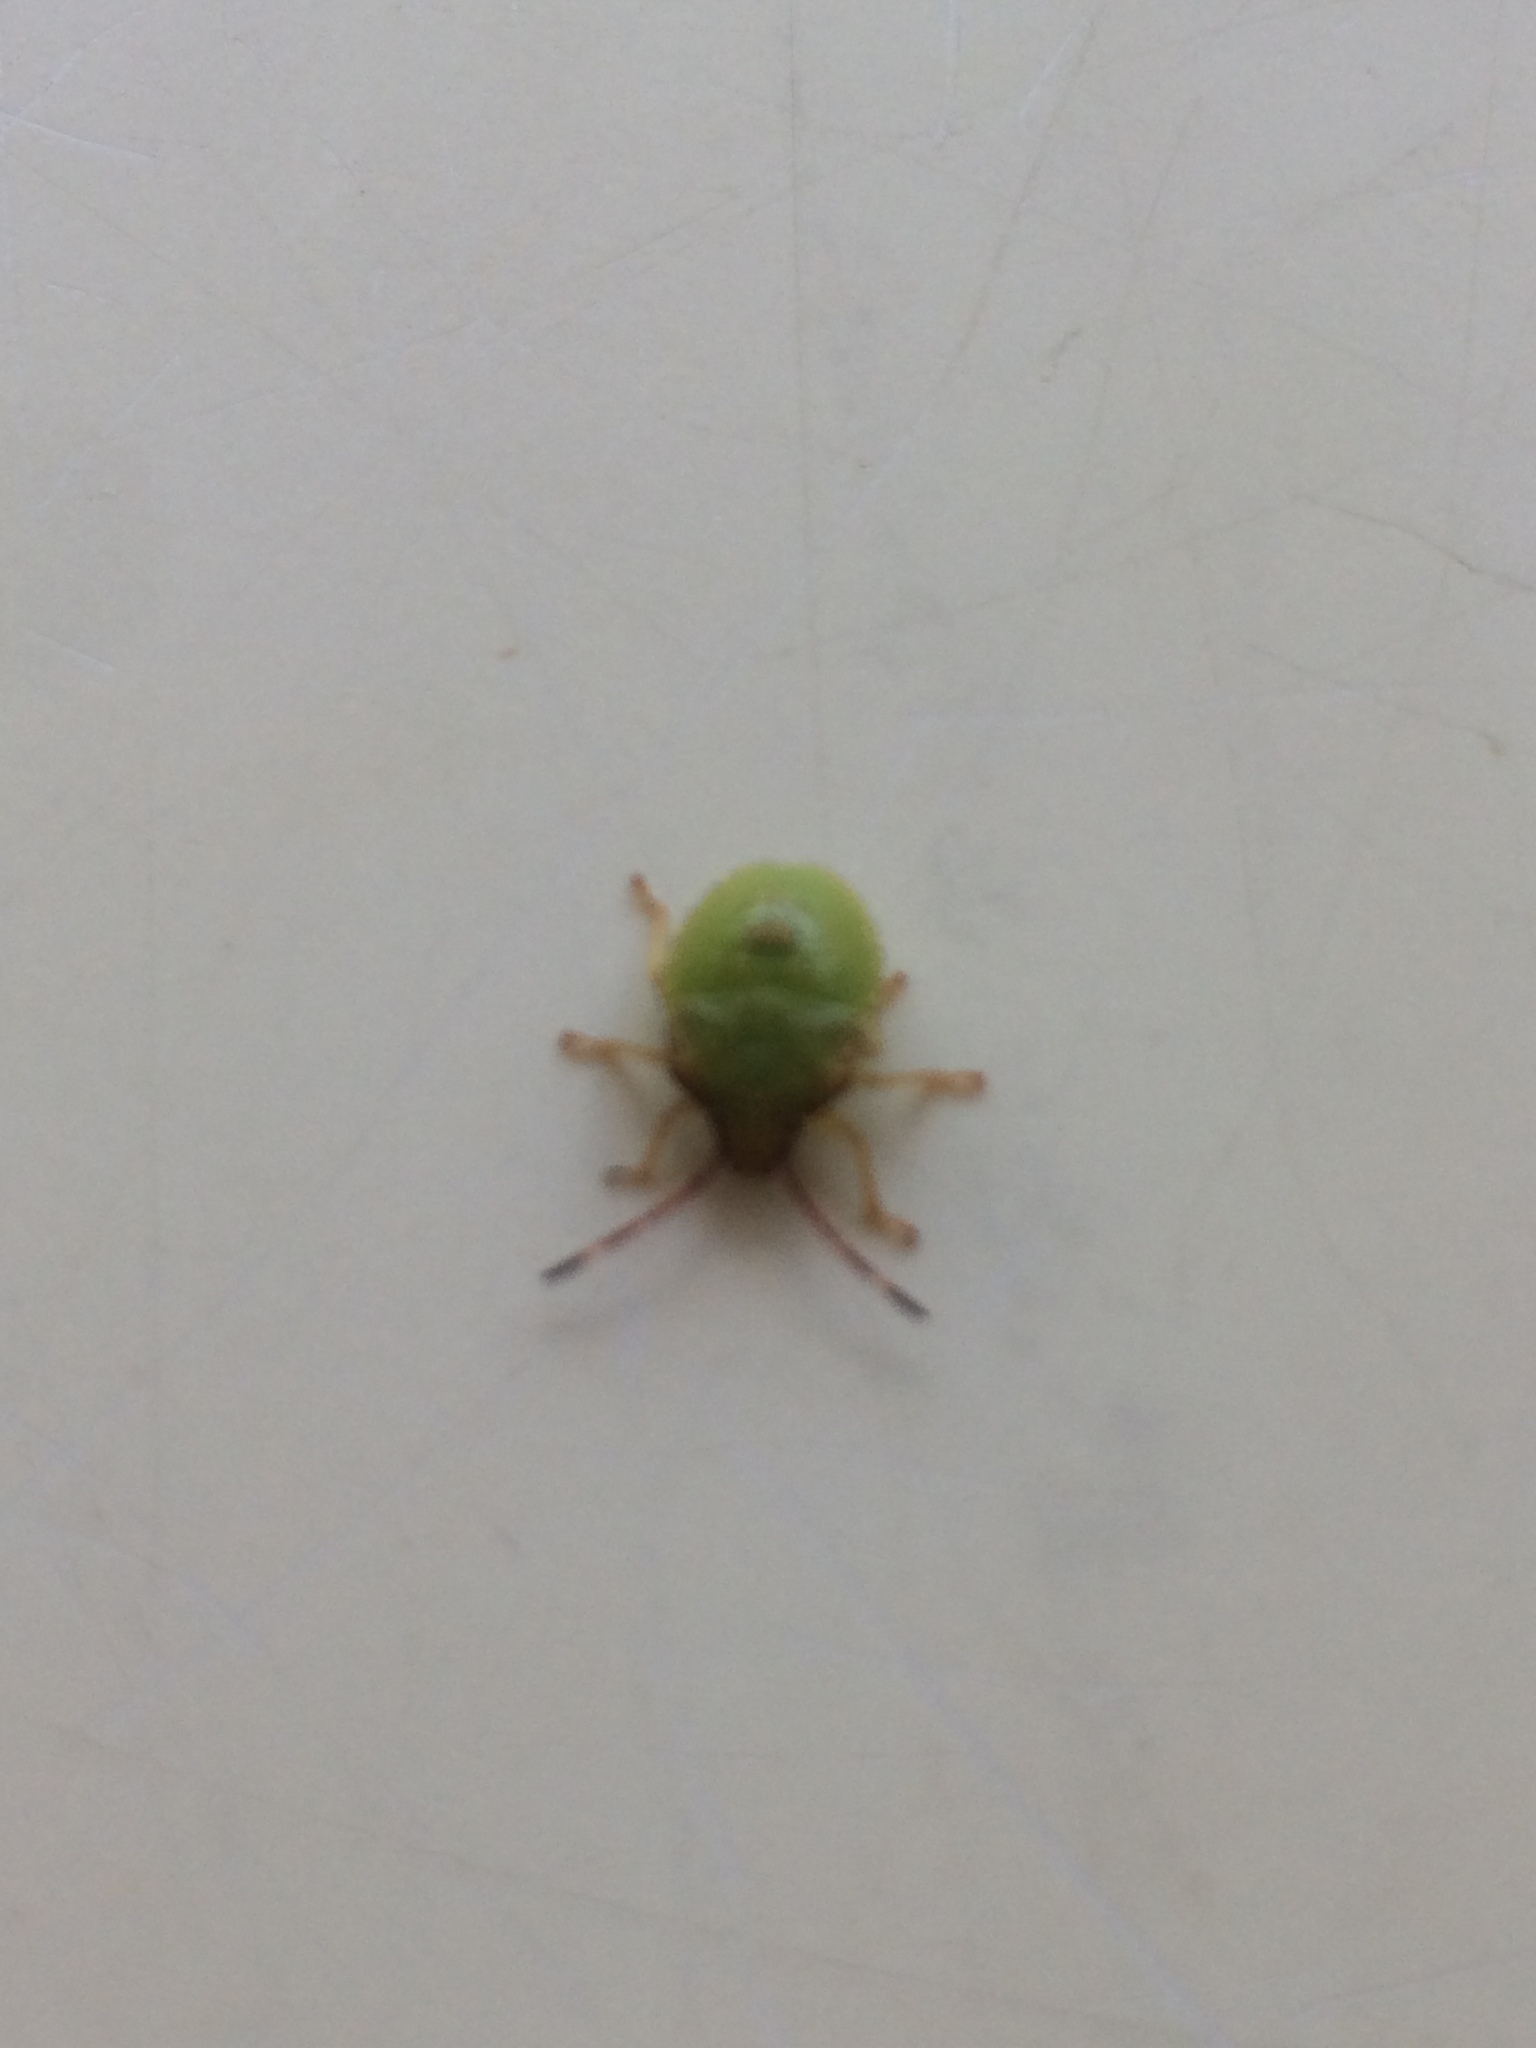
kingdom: Animalia
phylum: Arthropoda
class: Insecta
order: Hemiptera
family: Acanthosomatidae
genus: Acanthosoma
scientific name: Acanthosoma haemorrhoidale
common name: Hawthorn shieldbug
